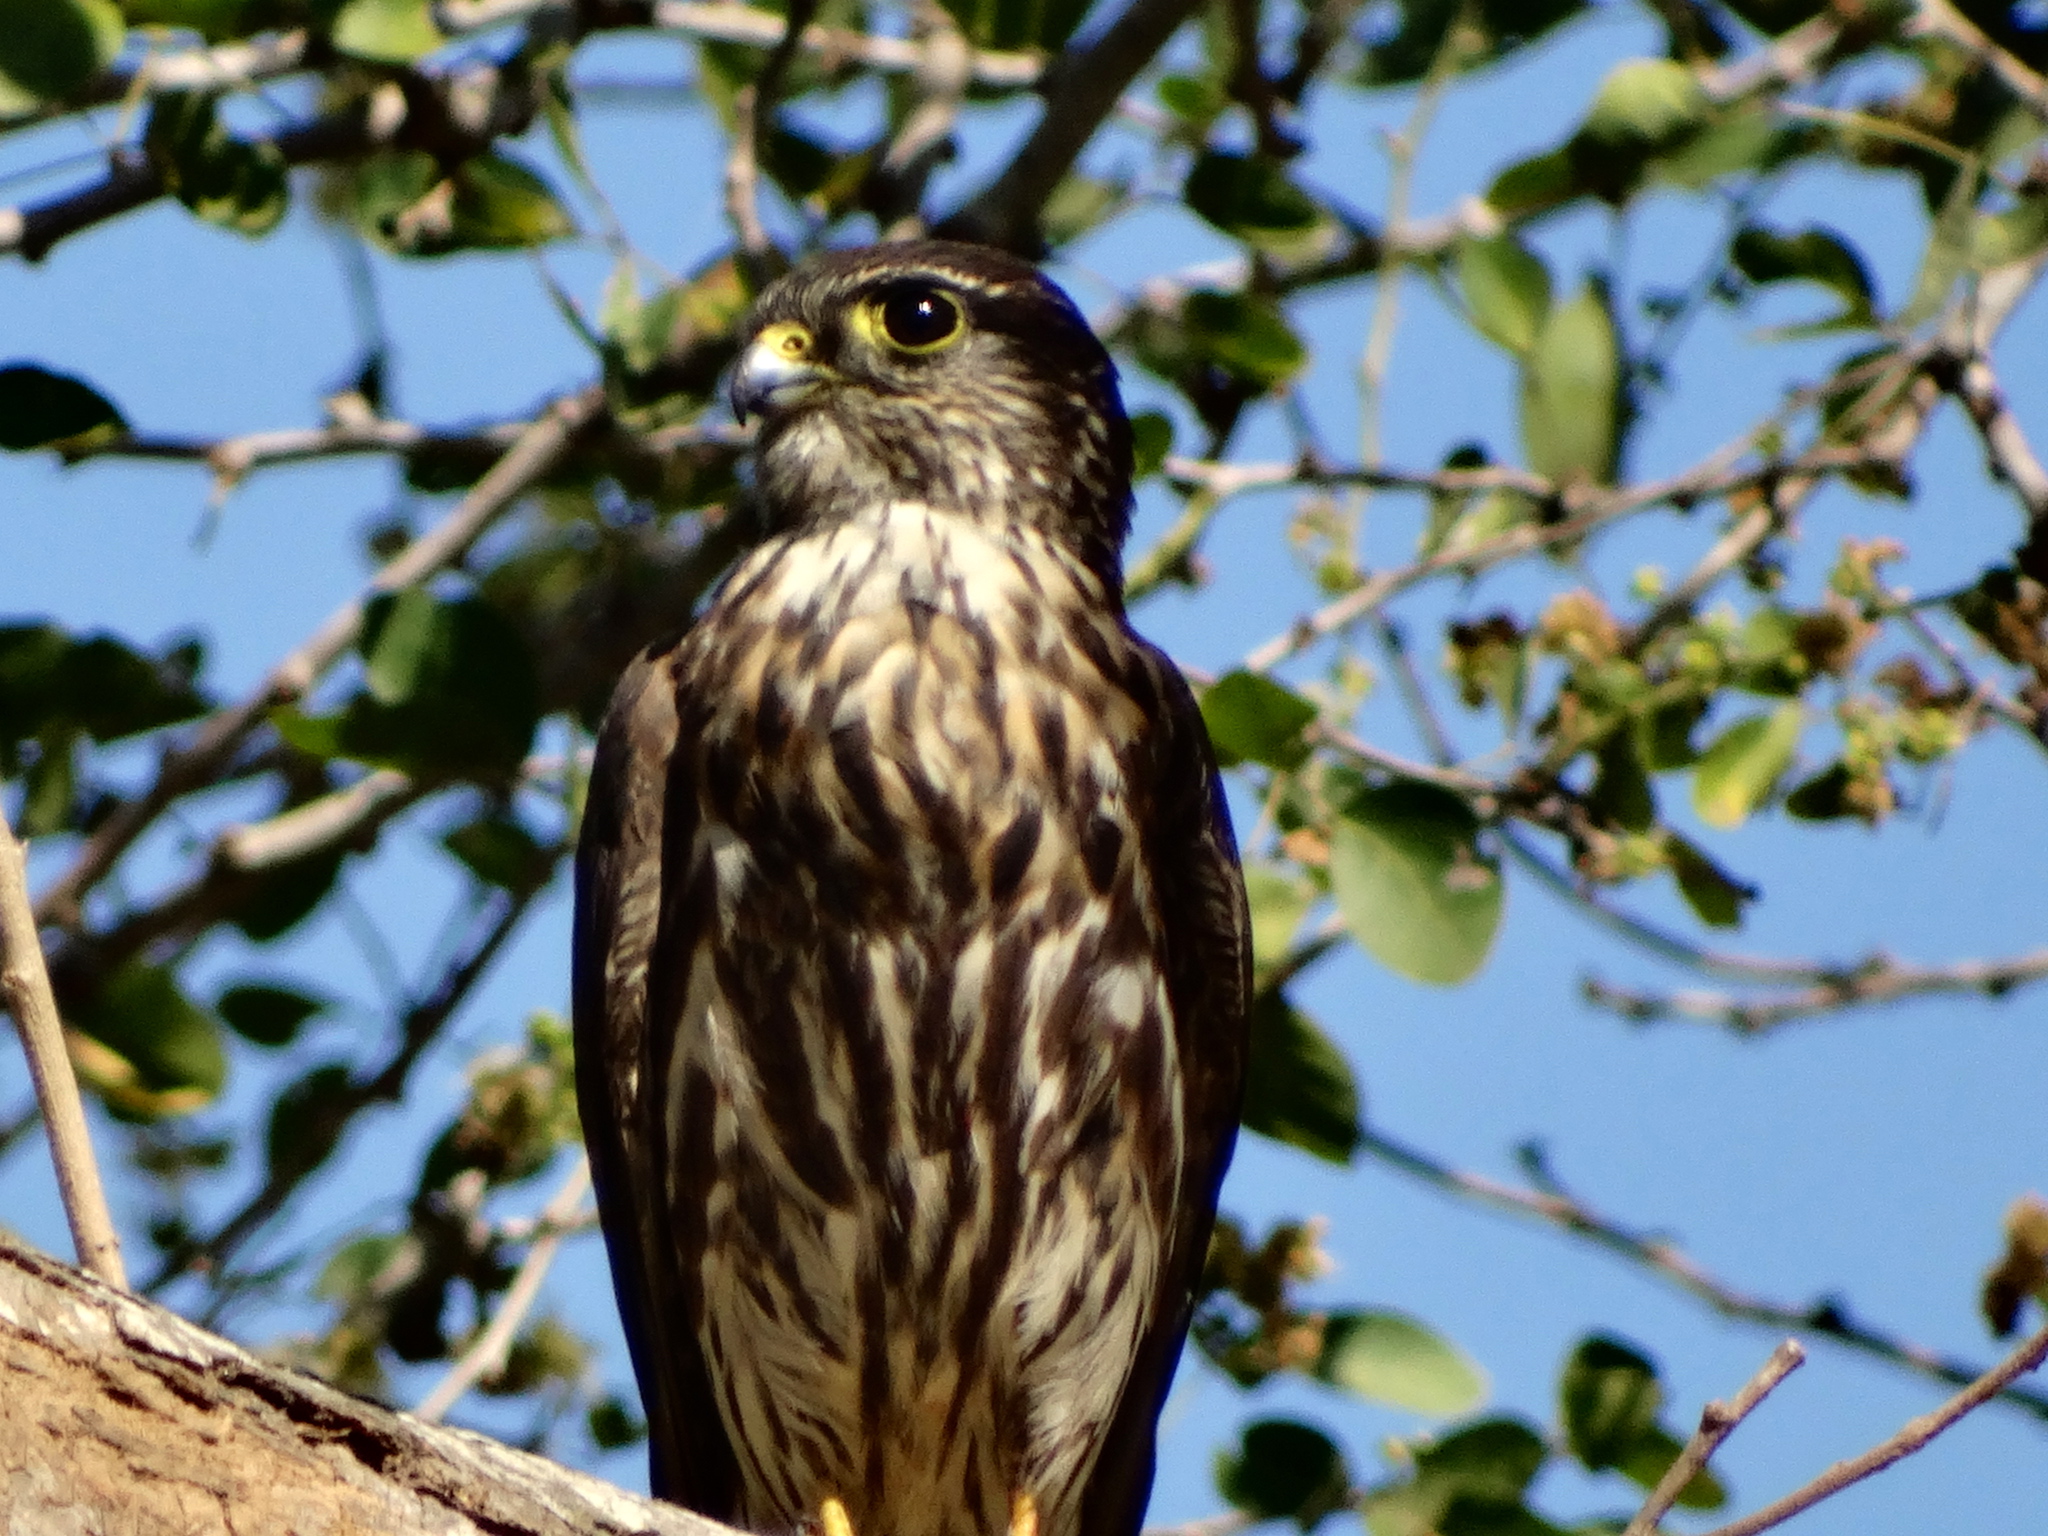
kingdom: Animalia
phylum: Chordata
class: Aves
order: Falconiformes
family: Falconidae
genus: Falco
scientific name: Falco columbarius
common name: Merlin
